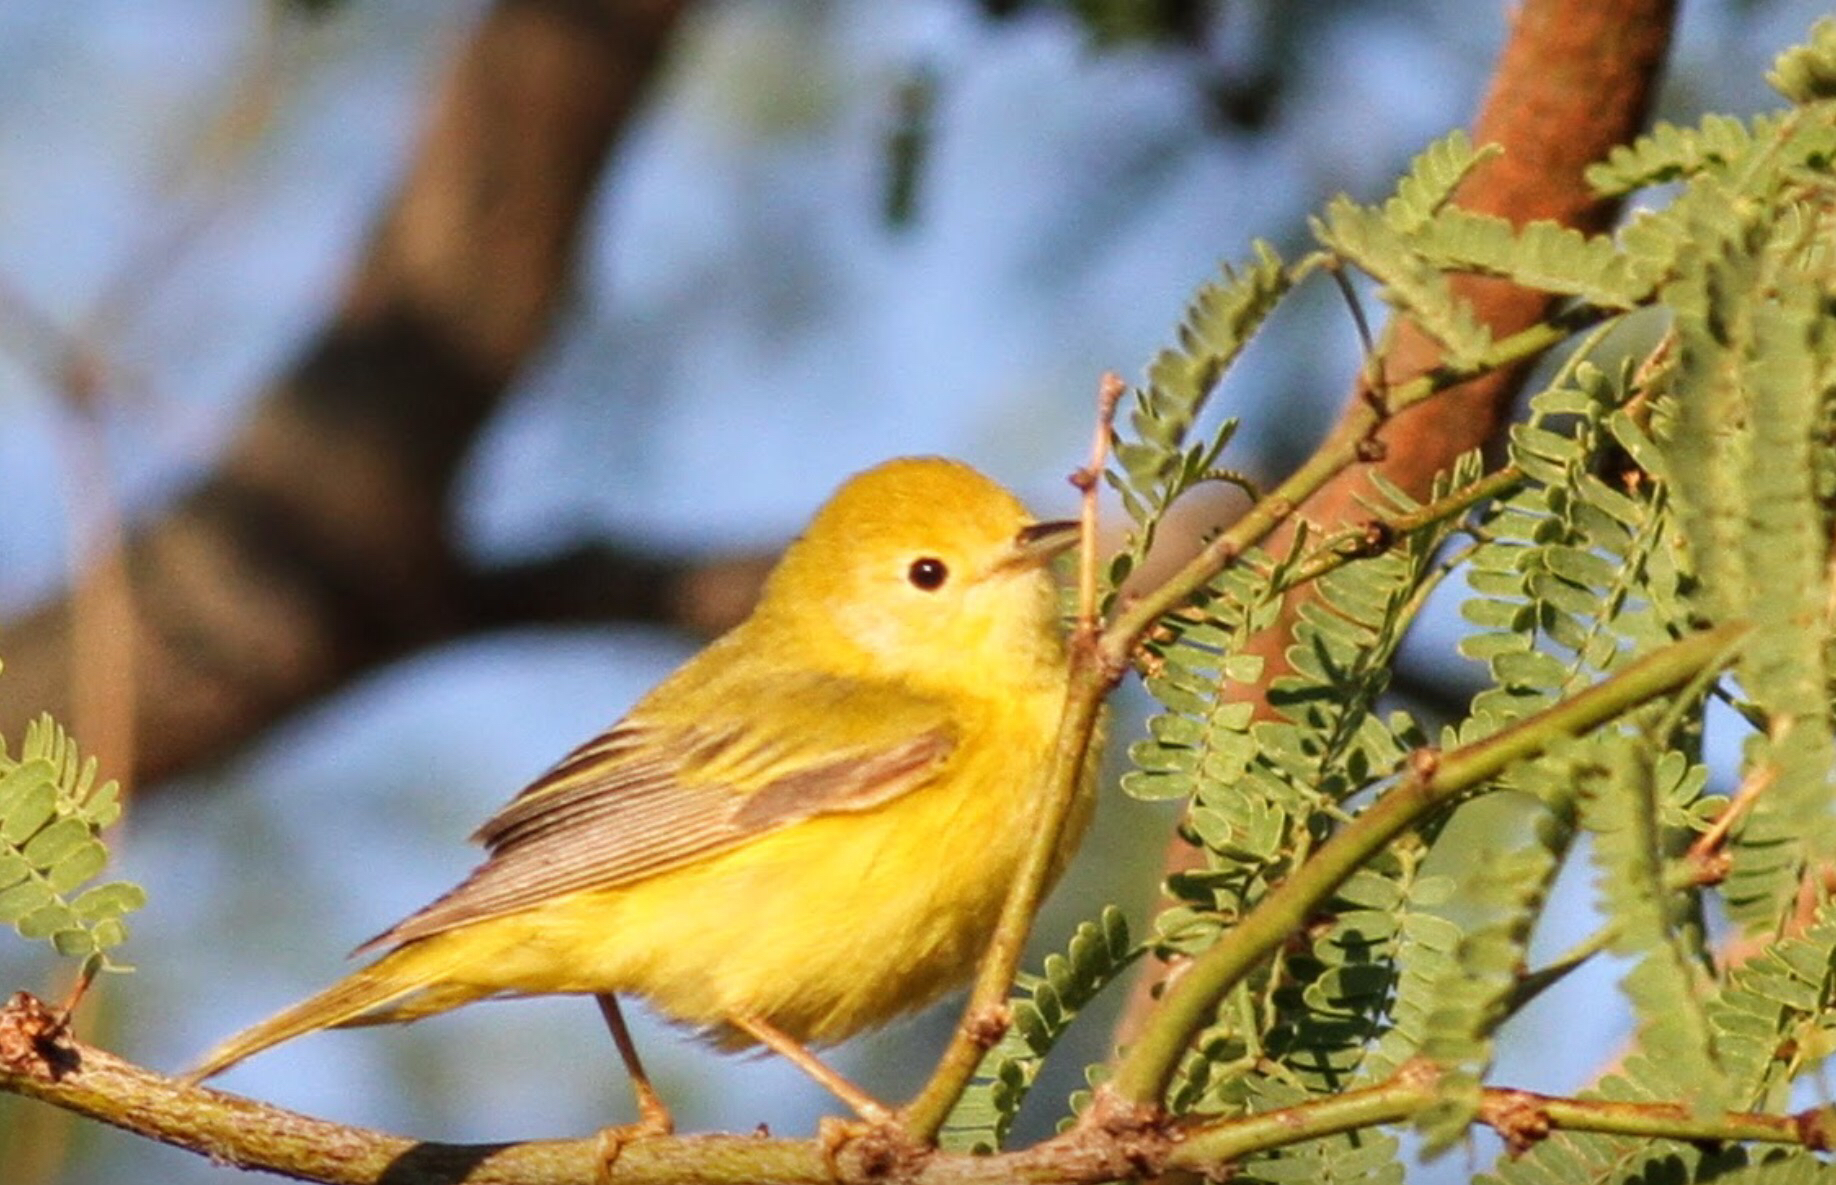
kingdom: Animalia
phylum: Chordata
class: Aves
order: Passeriformes
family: Parulidae
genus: Setophaga
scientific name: Setophaga petechia
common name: Yellow warbler
